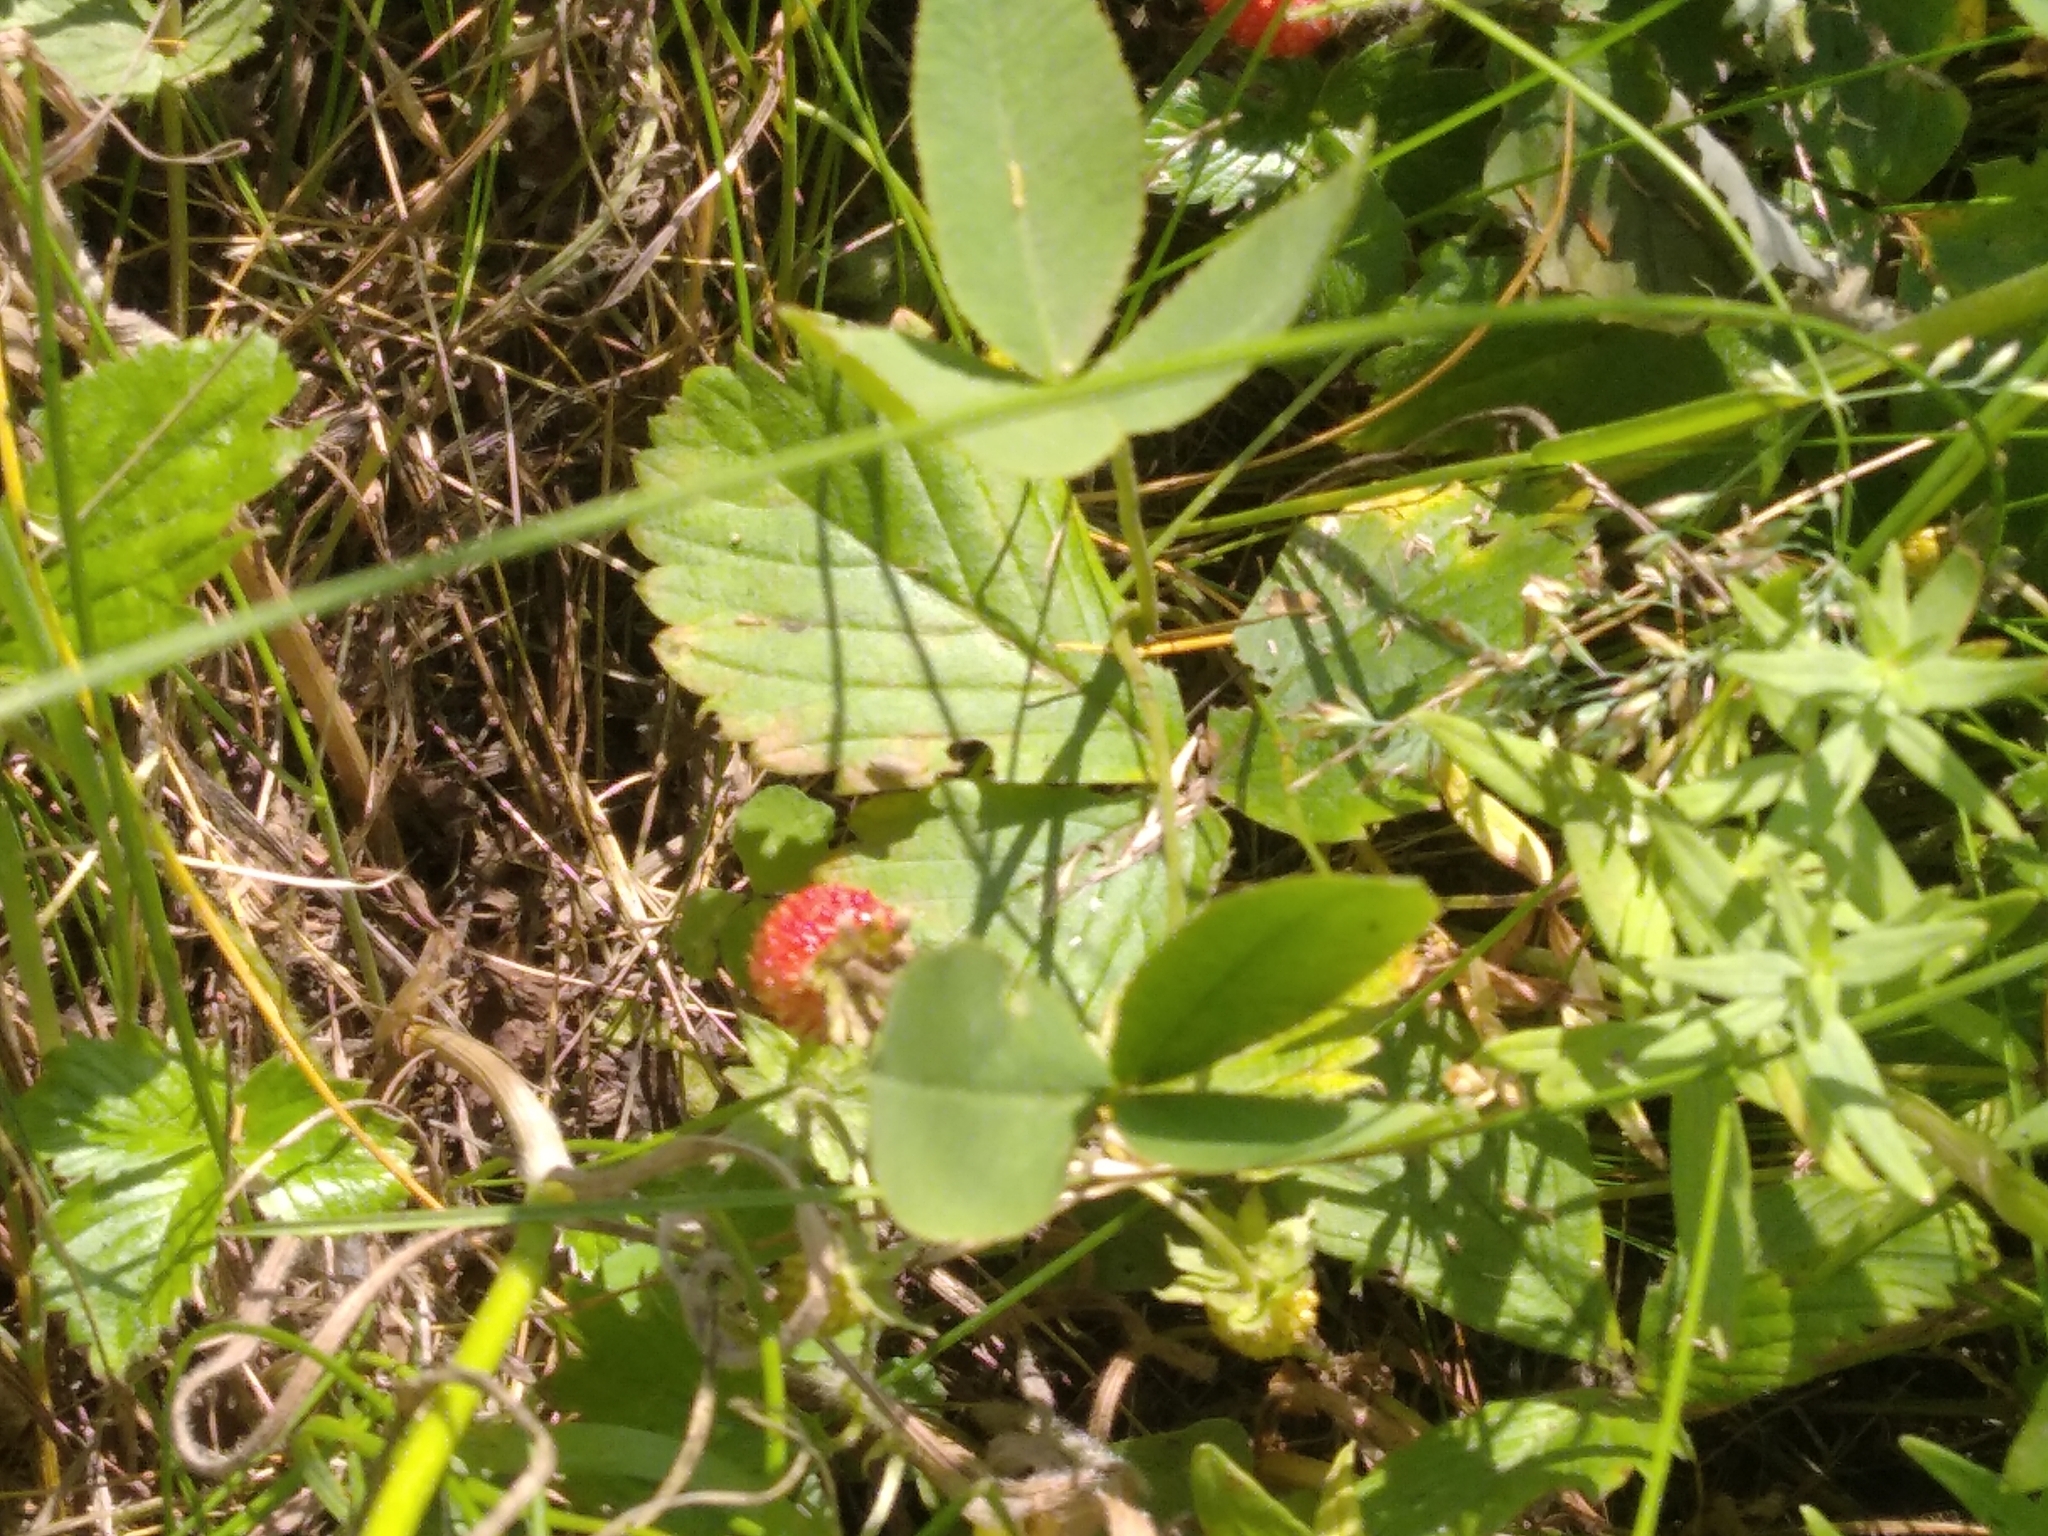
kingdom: Plantae
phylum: Tracheophyta
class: Magnoliopsida
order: Rosales
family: Rosaceae
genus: Fragaria
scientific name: Fragaria viridis
